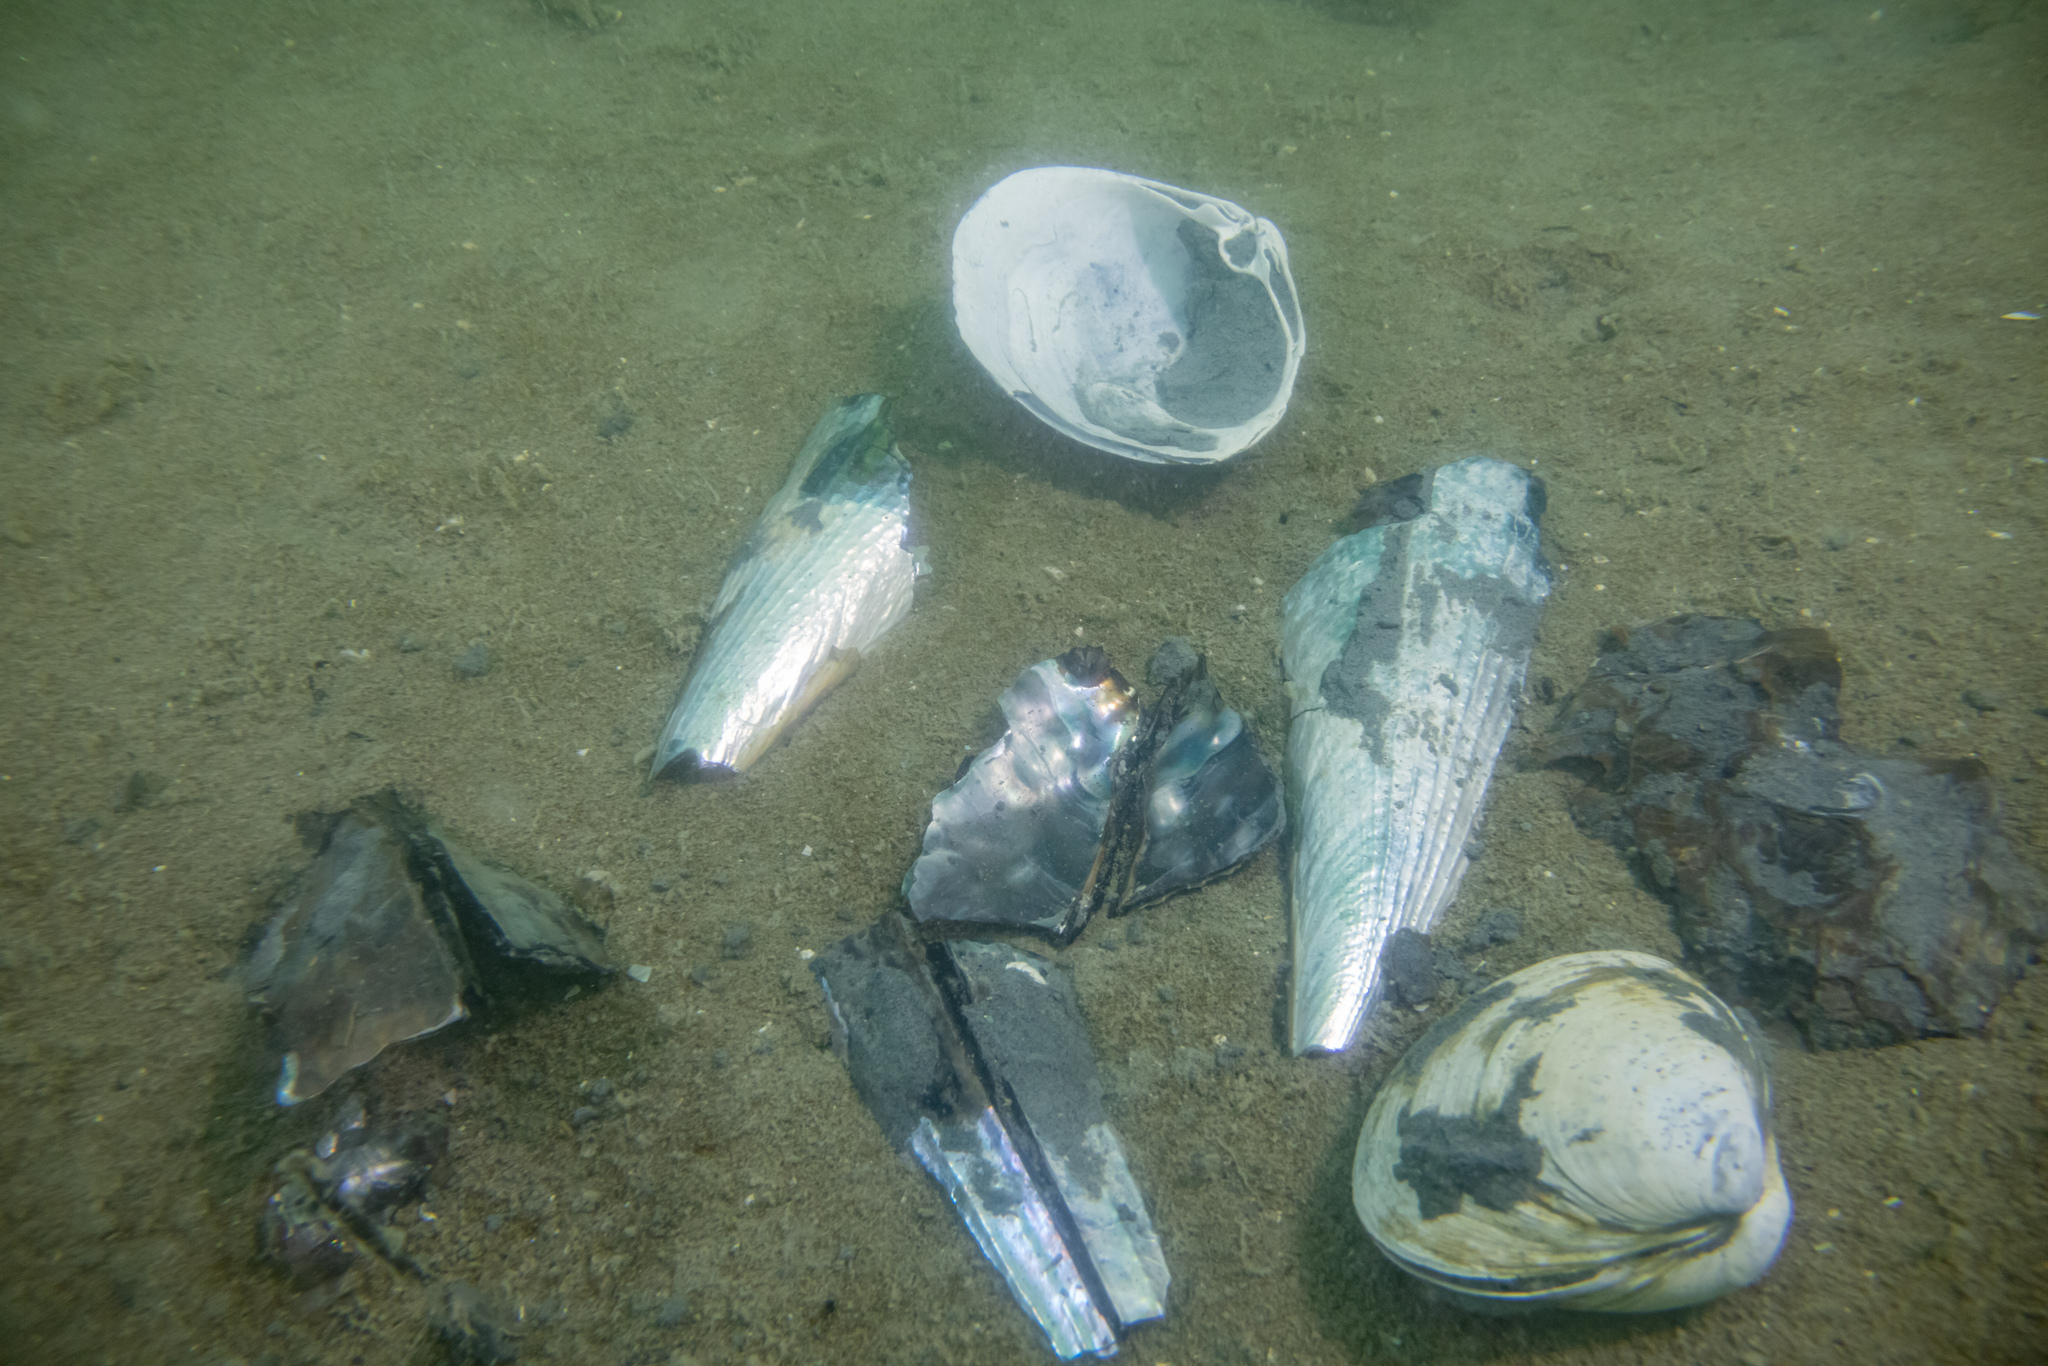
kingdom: Animalia
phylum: Mollusca
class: Bivalvia
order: Venerida
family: Mactridae
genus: Cyclomactra
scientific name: Cyclomactra ovata
